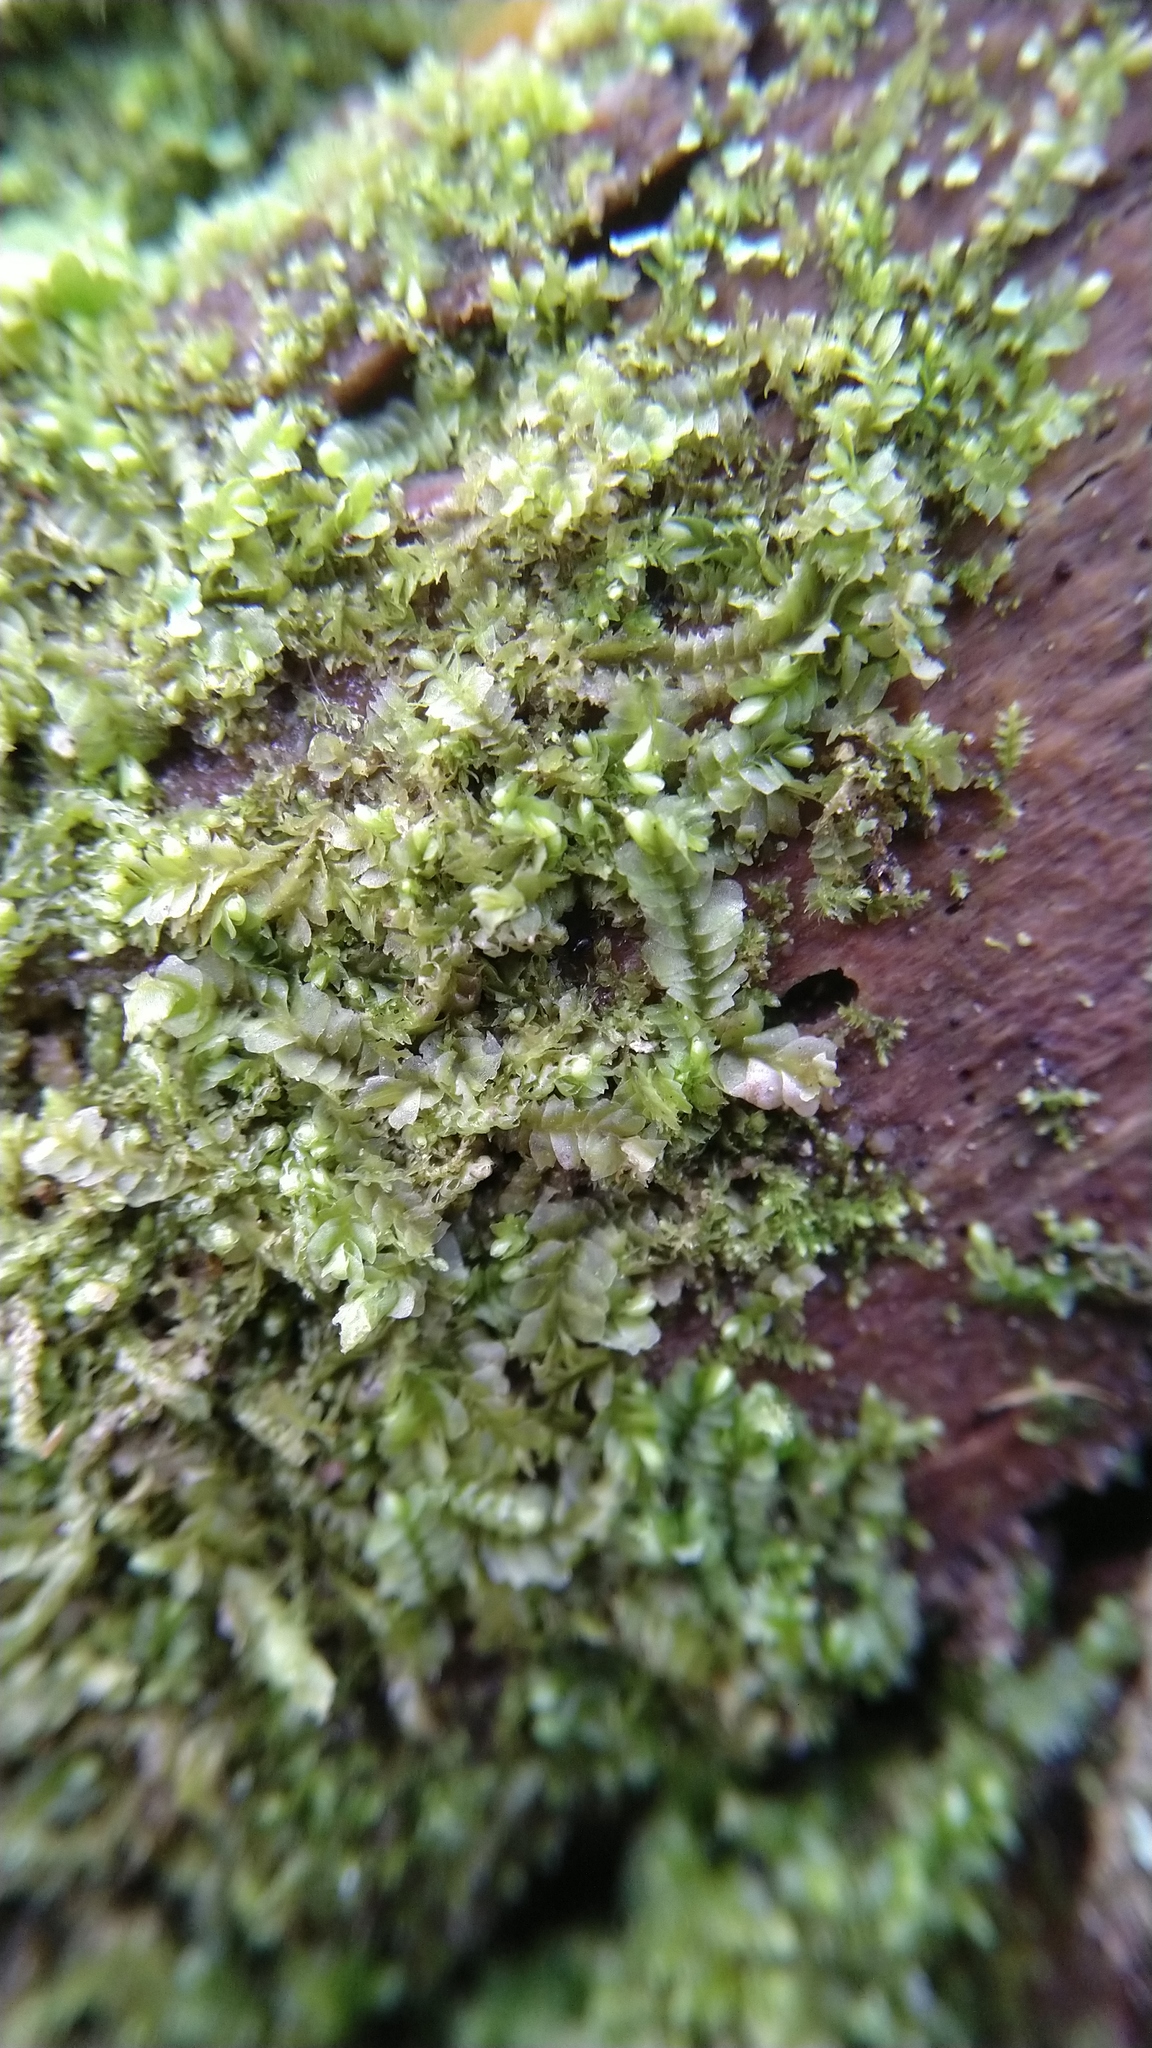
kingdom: Plantae
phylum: Marchantiophyta
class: Jungermanniopsida
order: Jungermanniales
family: Lophocoleaceae
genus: Lophocolea
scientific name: Lophocolea heterophylla
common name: Variable-leaved crestwort
